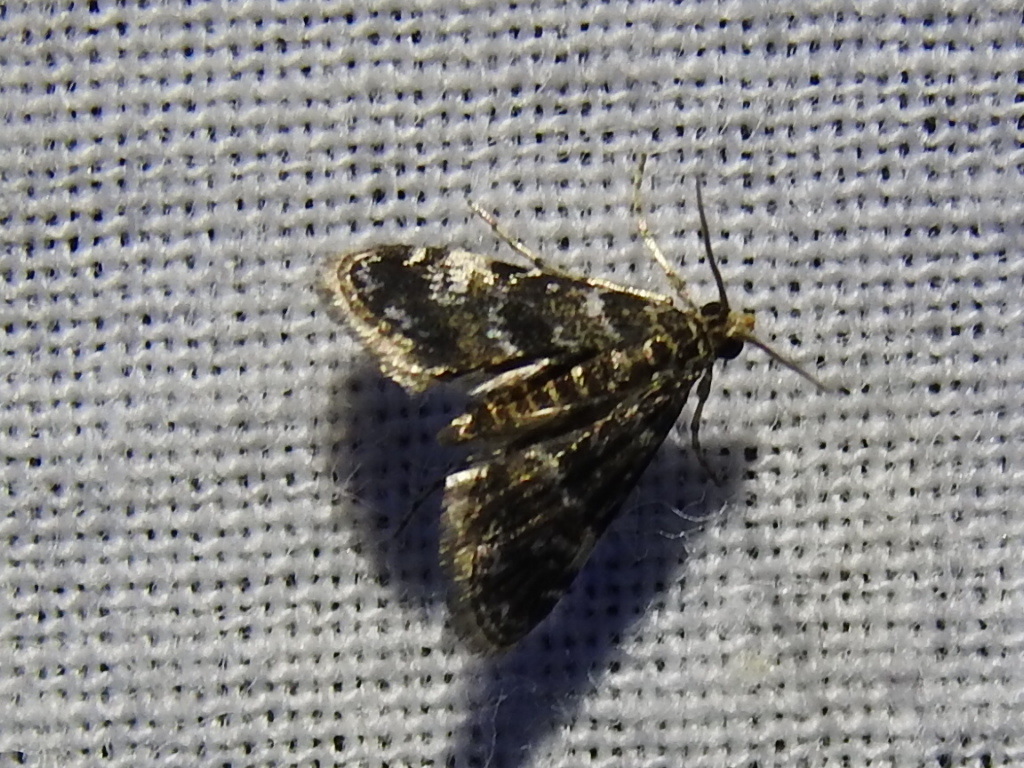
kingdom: Animalia
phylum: Arthropoda
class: Insecta
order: Lepidoptera
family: Crambidae
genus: Elophila
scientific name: Elophila obliteralis
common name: Waterlily leafcutter moth
